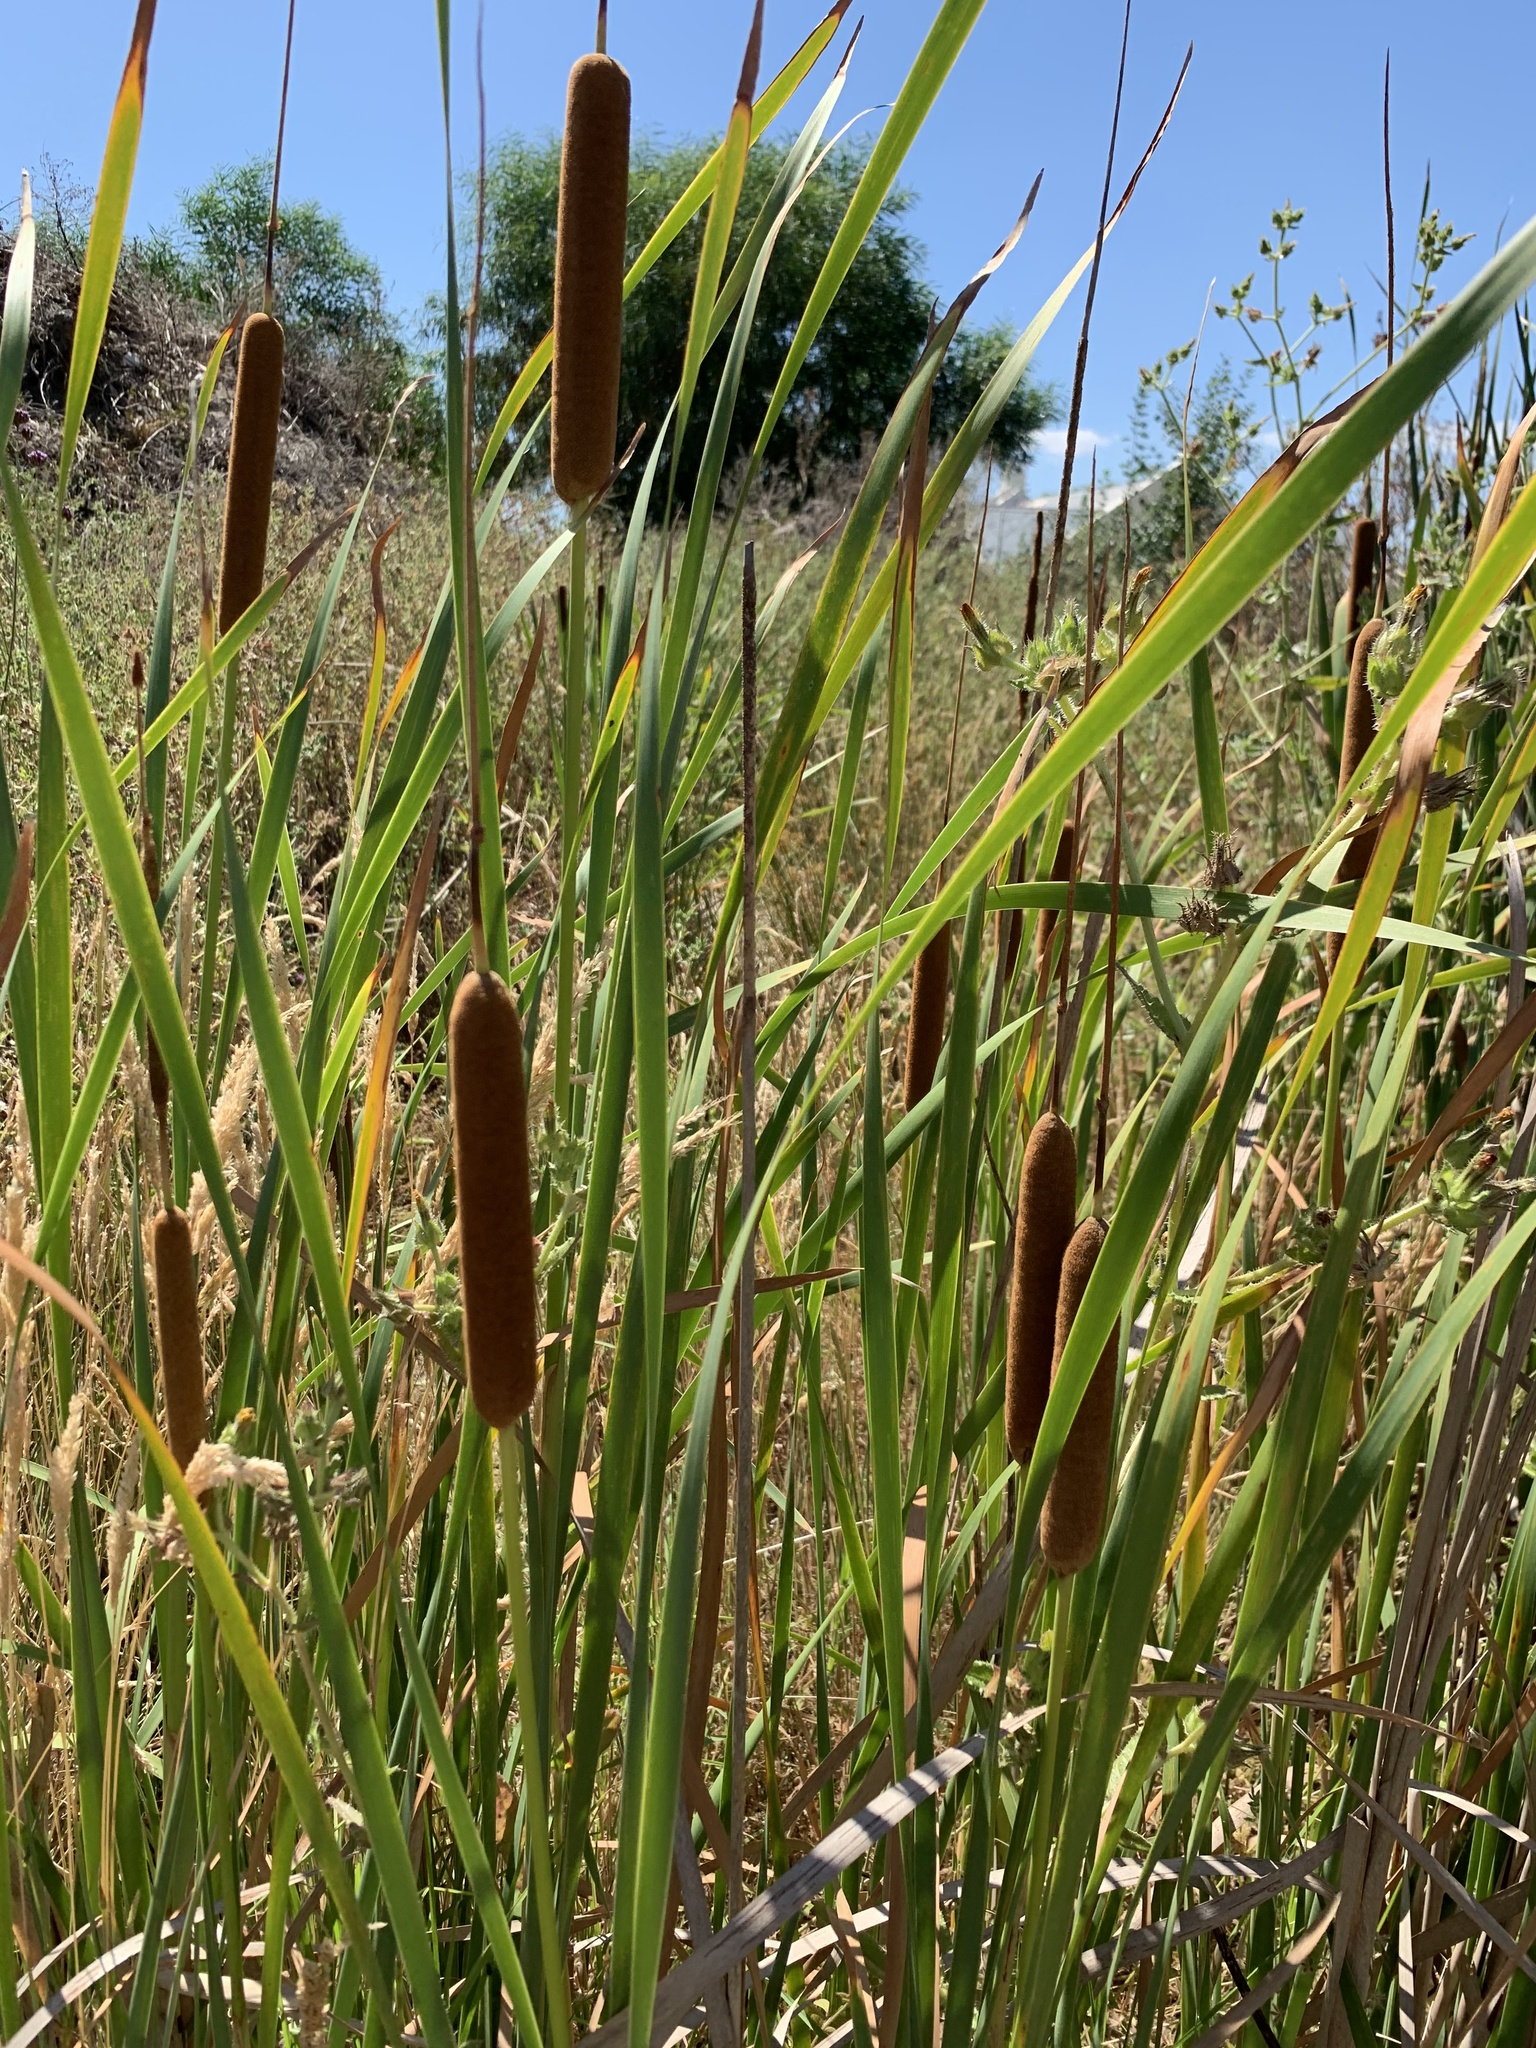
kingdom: Plantae
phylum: Tracheophyta
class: Liliopsida
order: Poales
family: Typhaceae
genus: Typha
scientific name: Typha capensis
